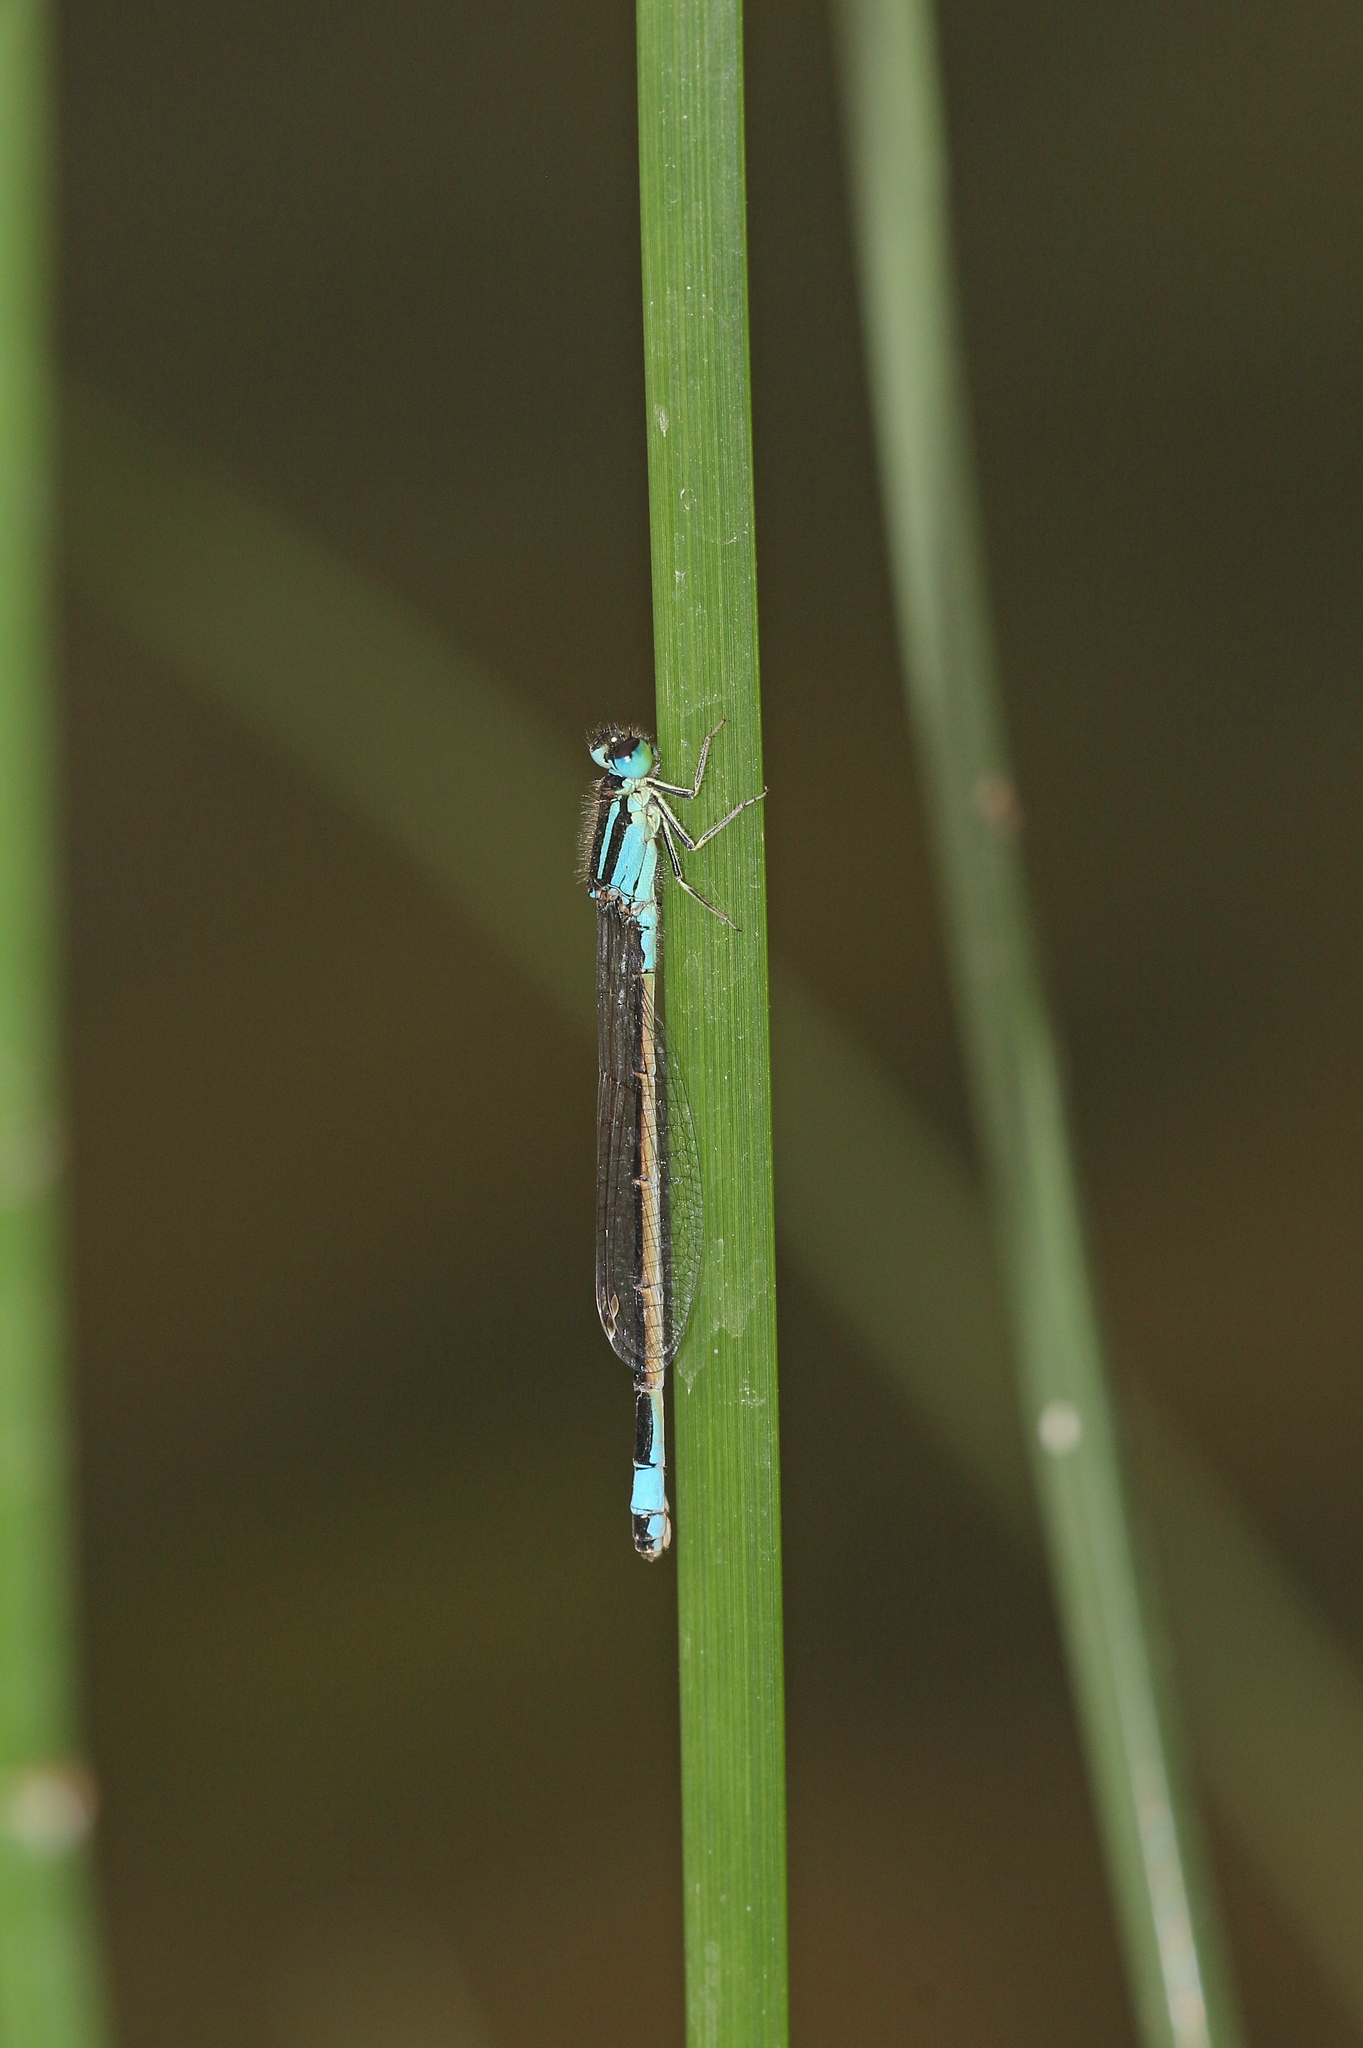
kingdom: Animalia
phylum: Arthropoda
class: Insecta
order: Odonata
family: Coenagrionidae
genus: Ischnura
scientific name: Ischnura graellsii
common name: Iberian bluetail
